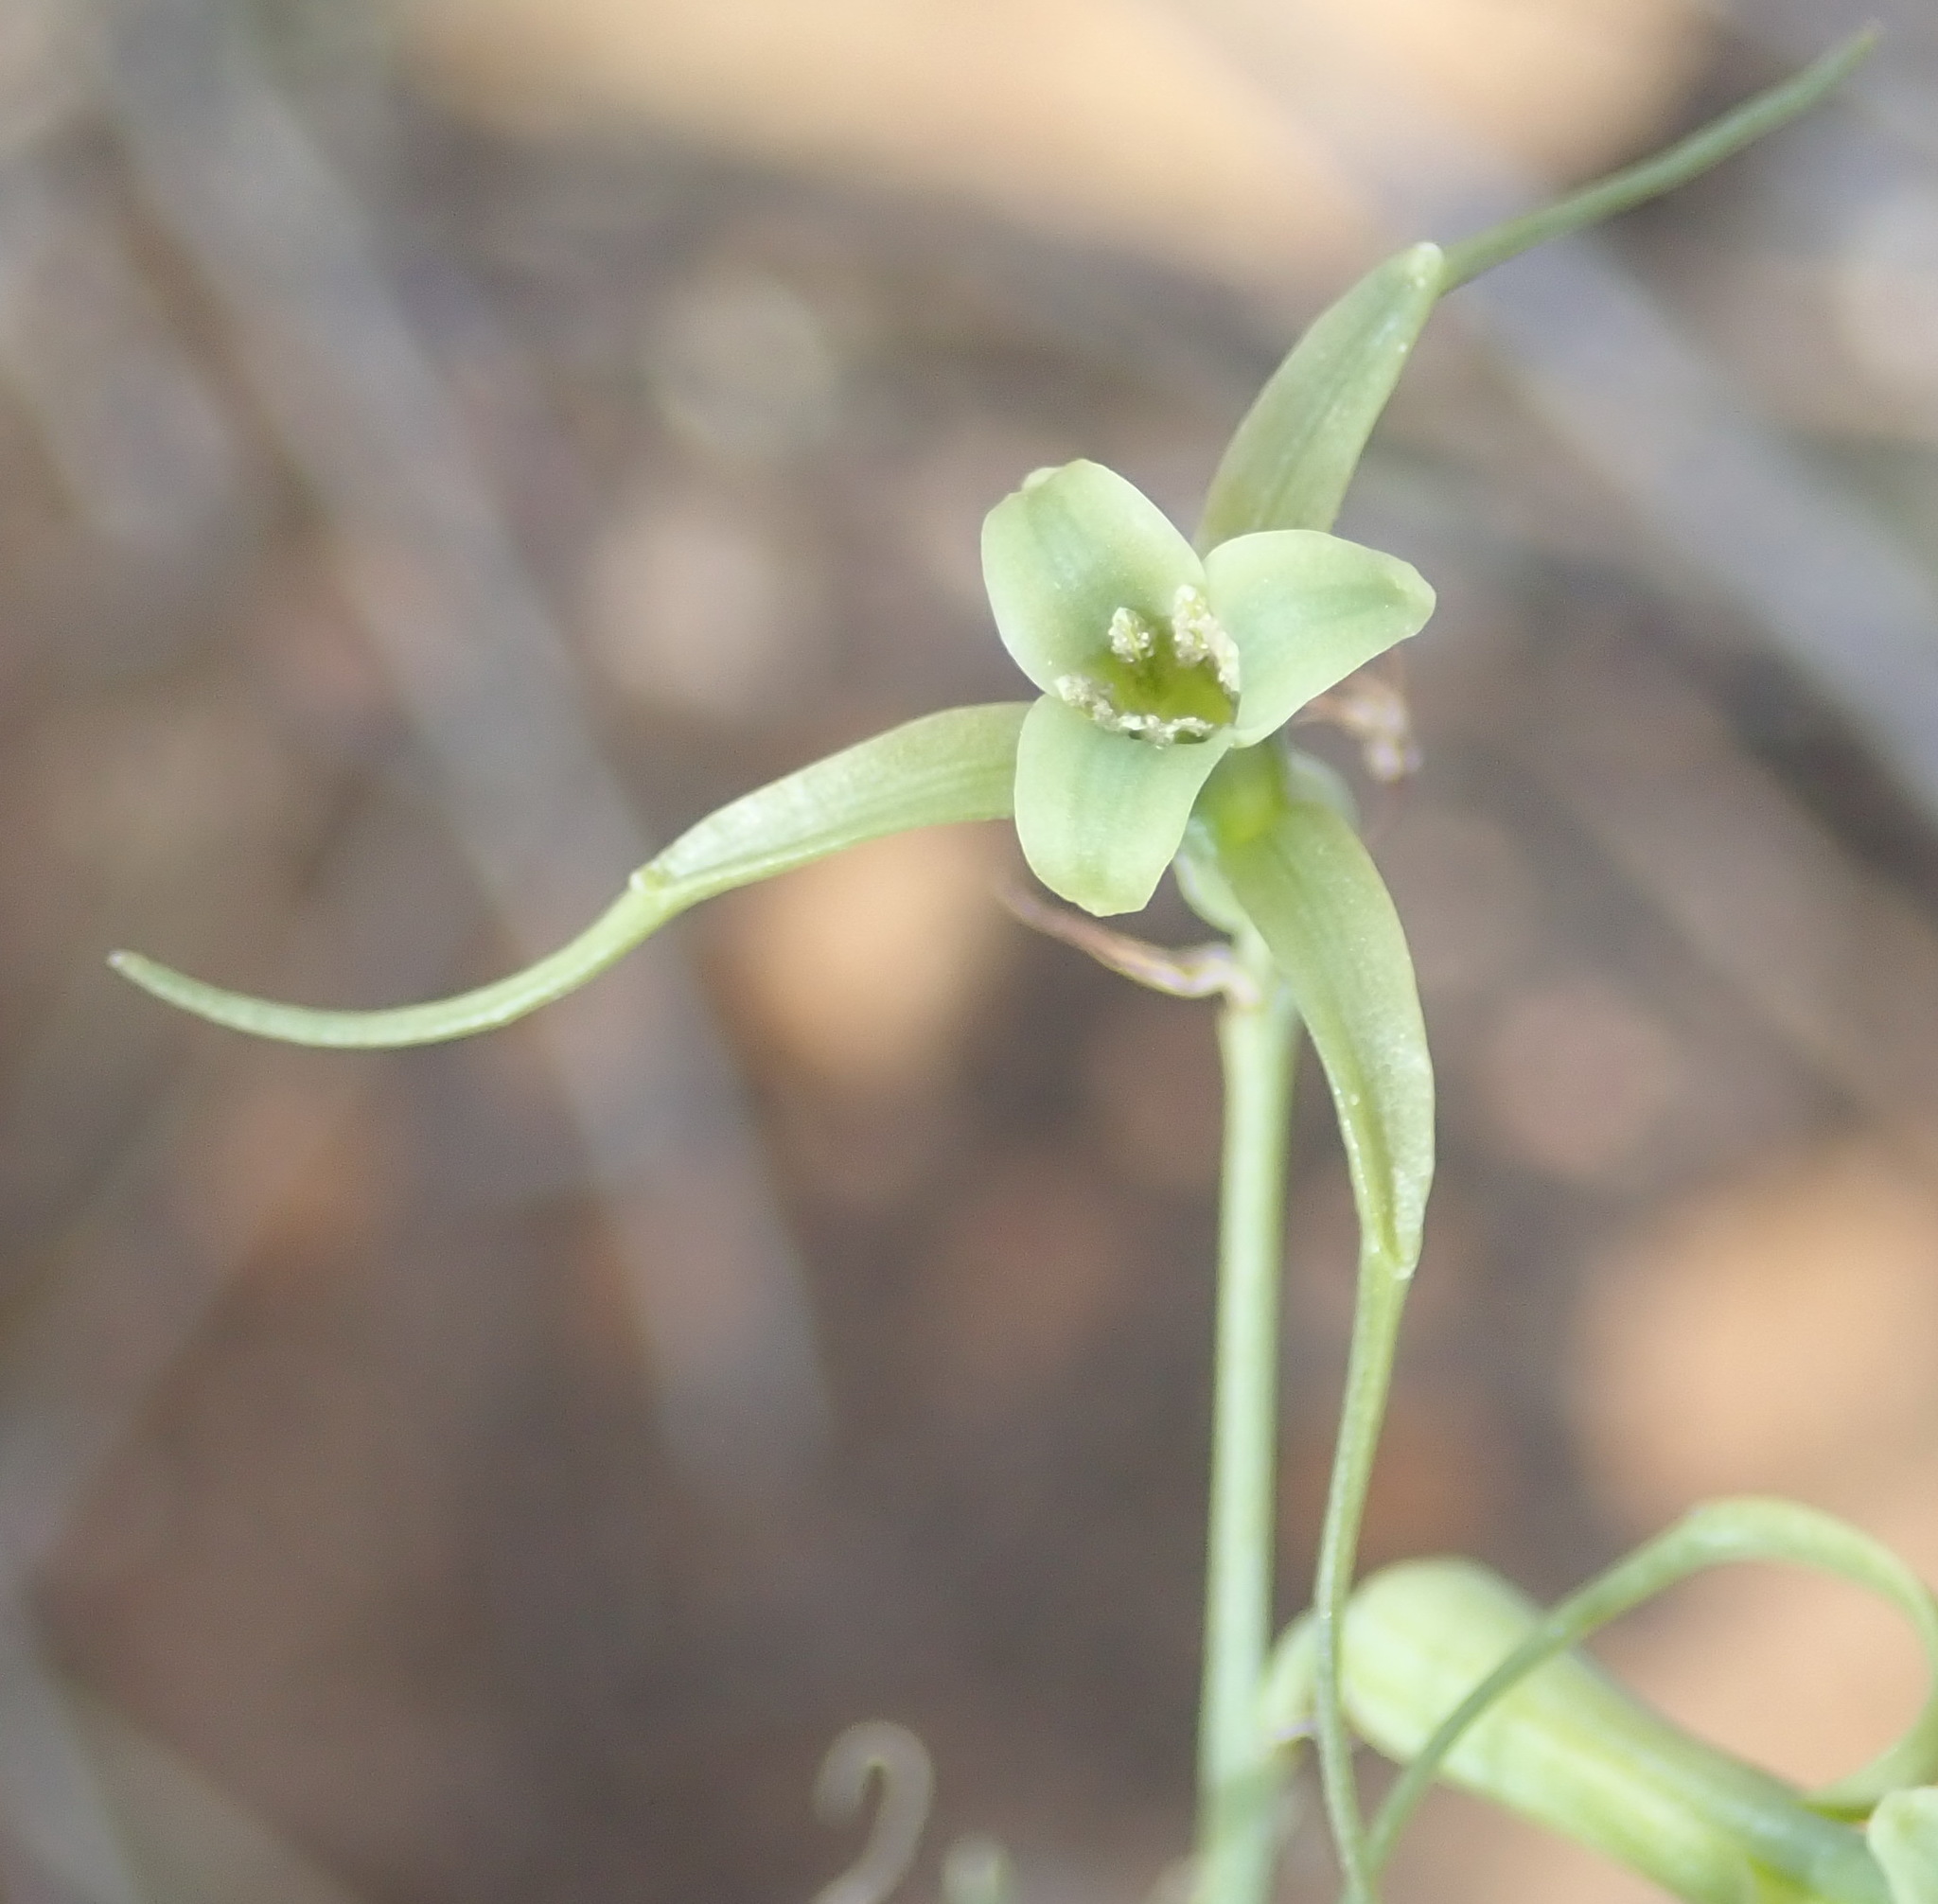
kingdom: Plantae
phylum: Tracheophyta
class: Liliopsida
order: Asparagales
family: Asparagaceae
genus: Dipcadi
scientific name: Dipcadi viride
